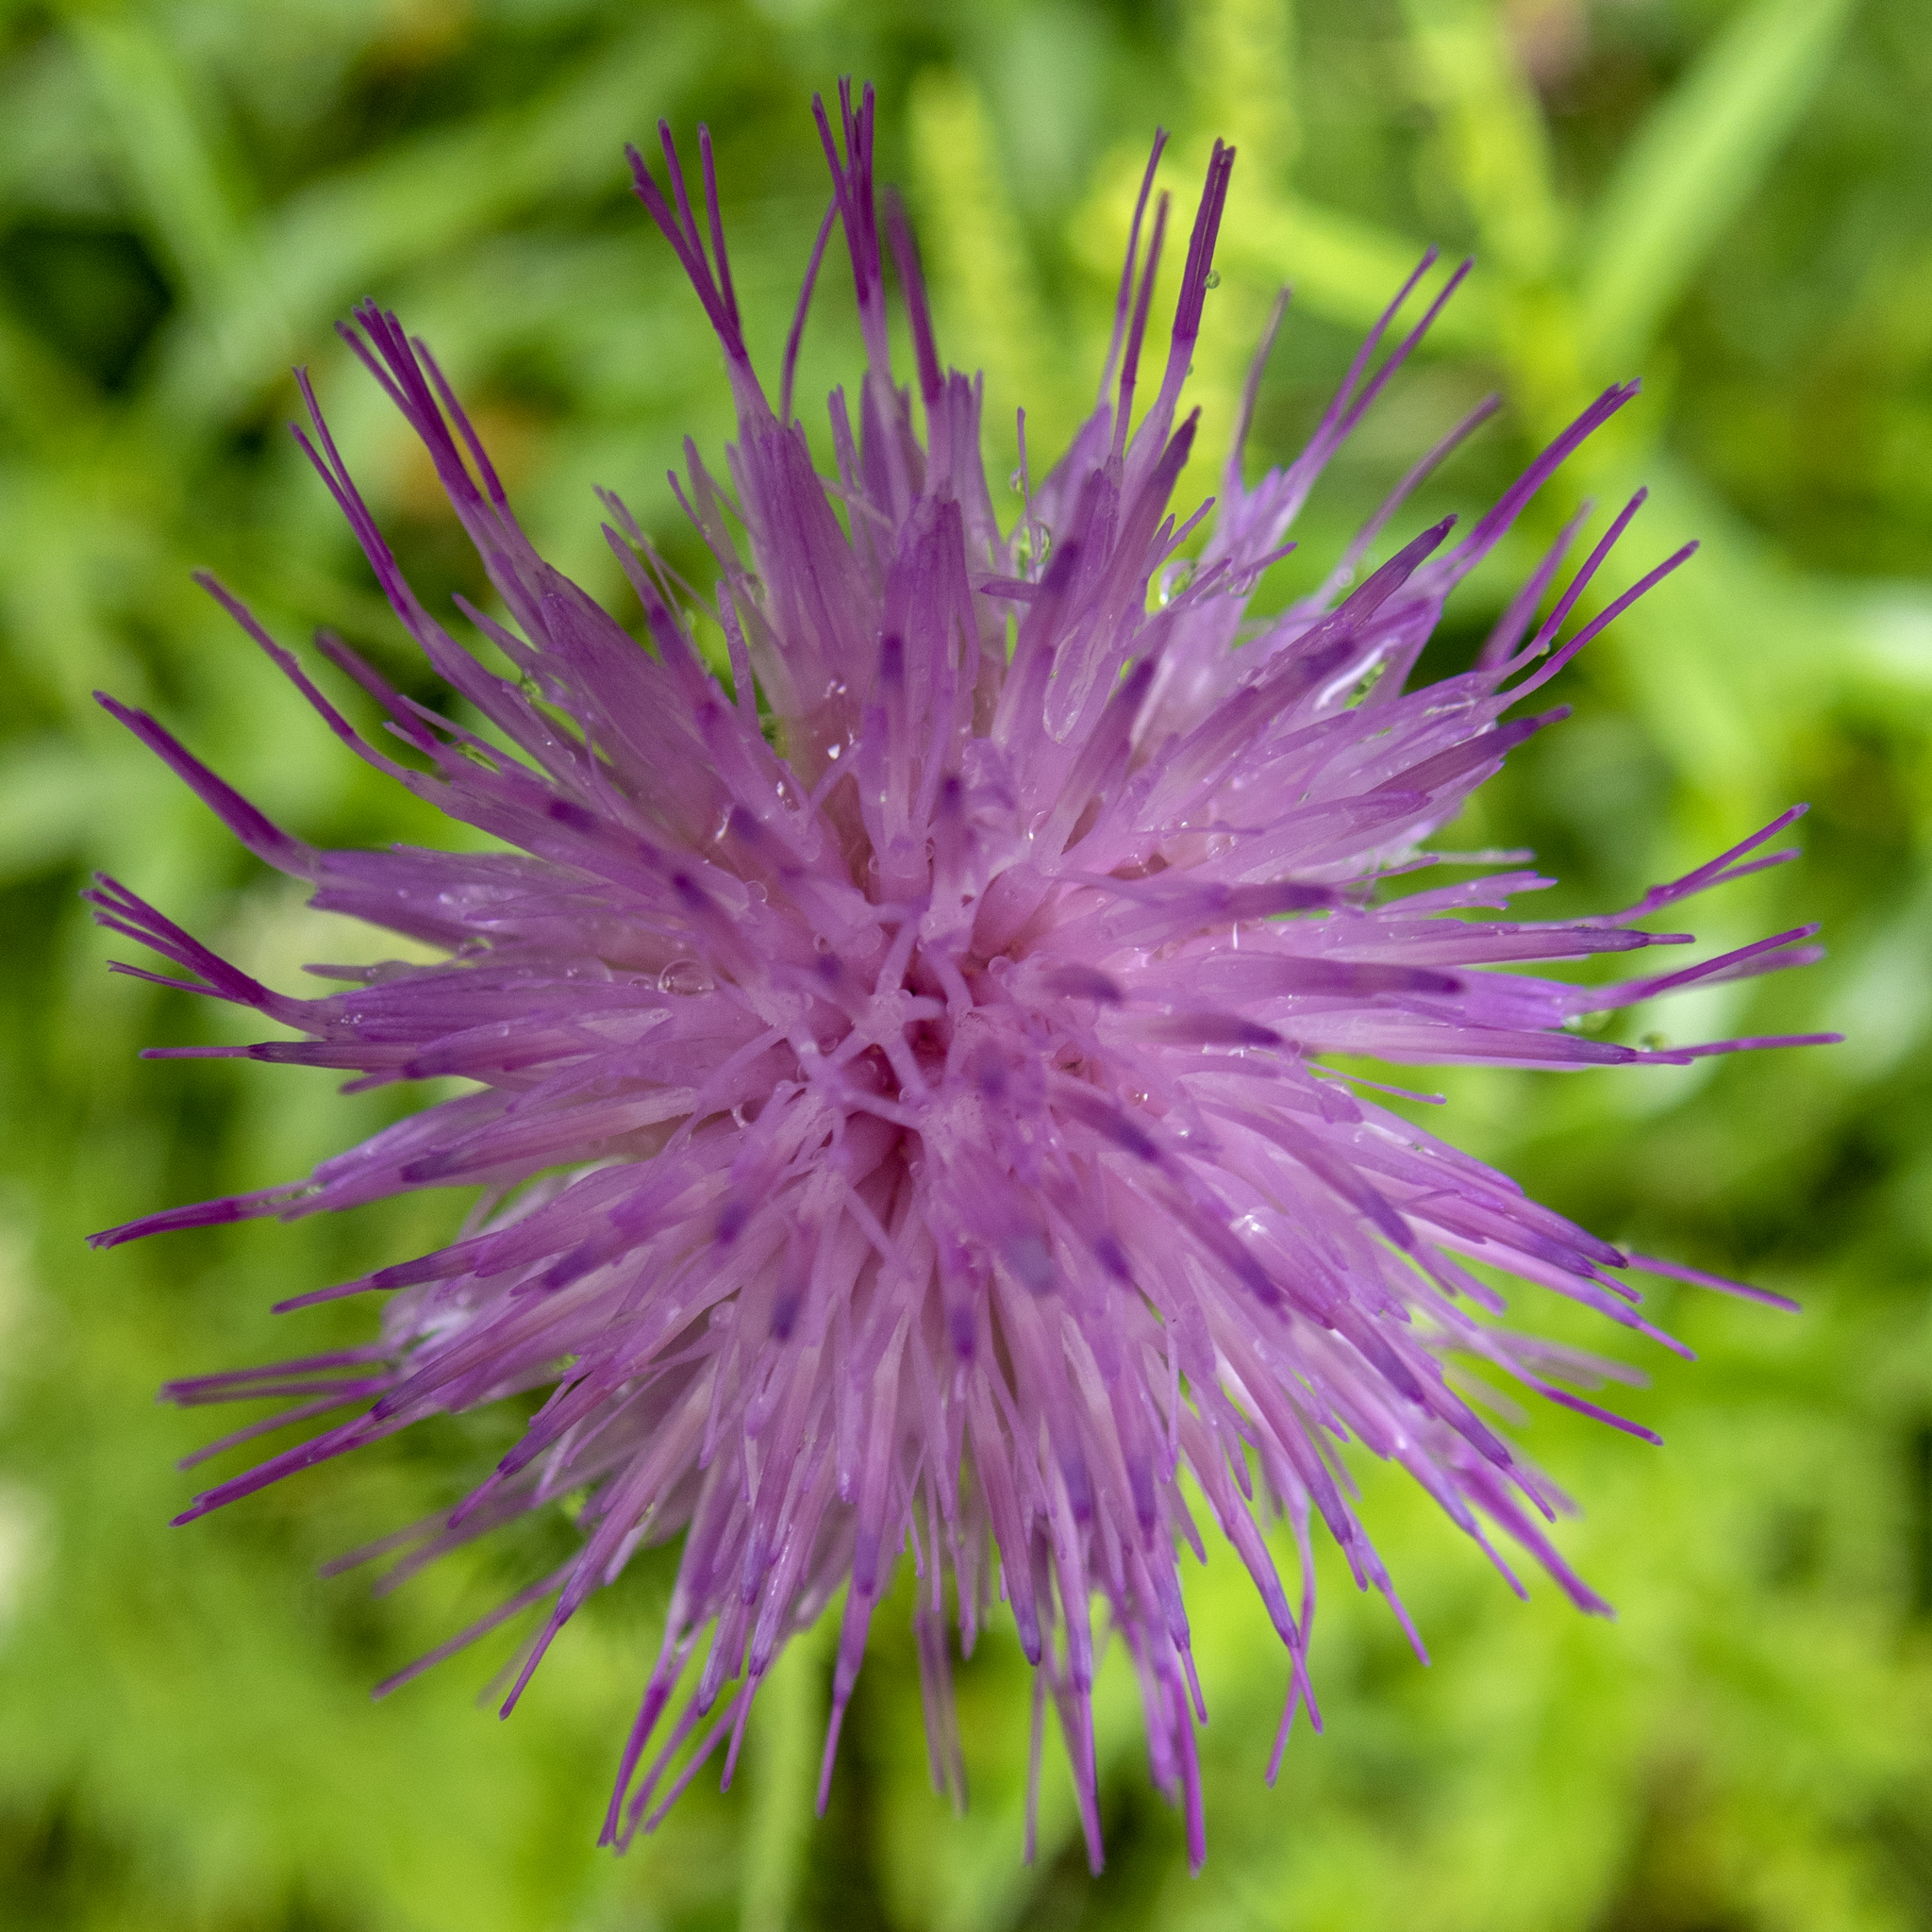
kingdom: Plantae
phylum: Tracheophyta
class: Magnoliopsida
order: Asterales
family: Asteraceae
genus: Cirsium
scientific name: Cirsium vulgare
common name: Bull thistle
